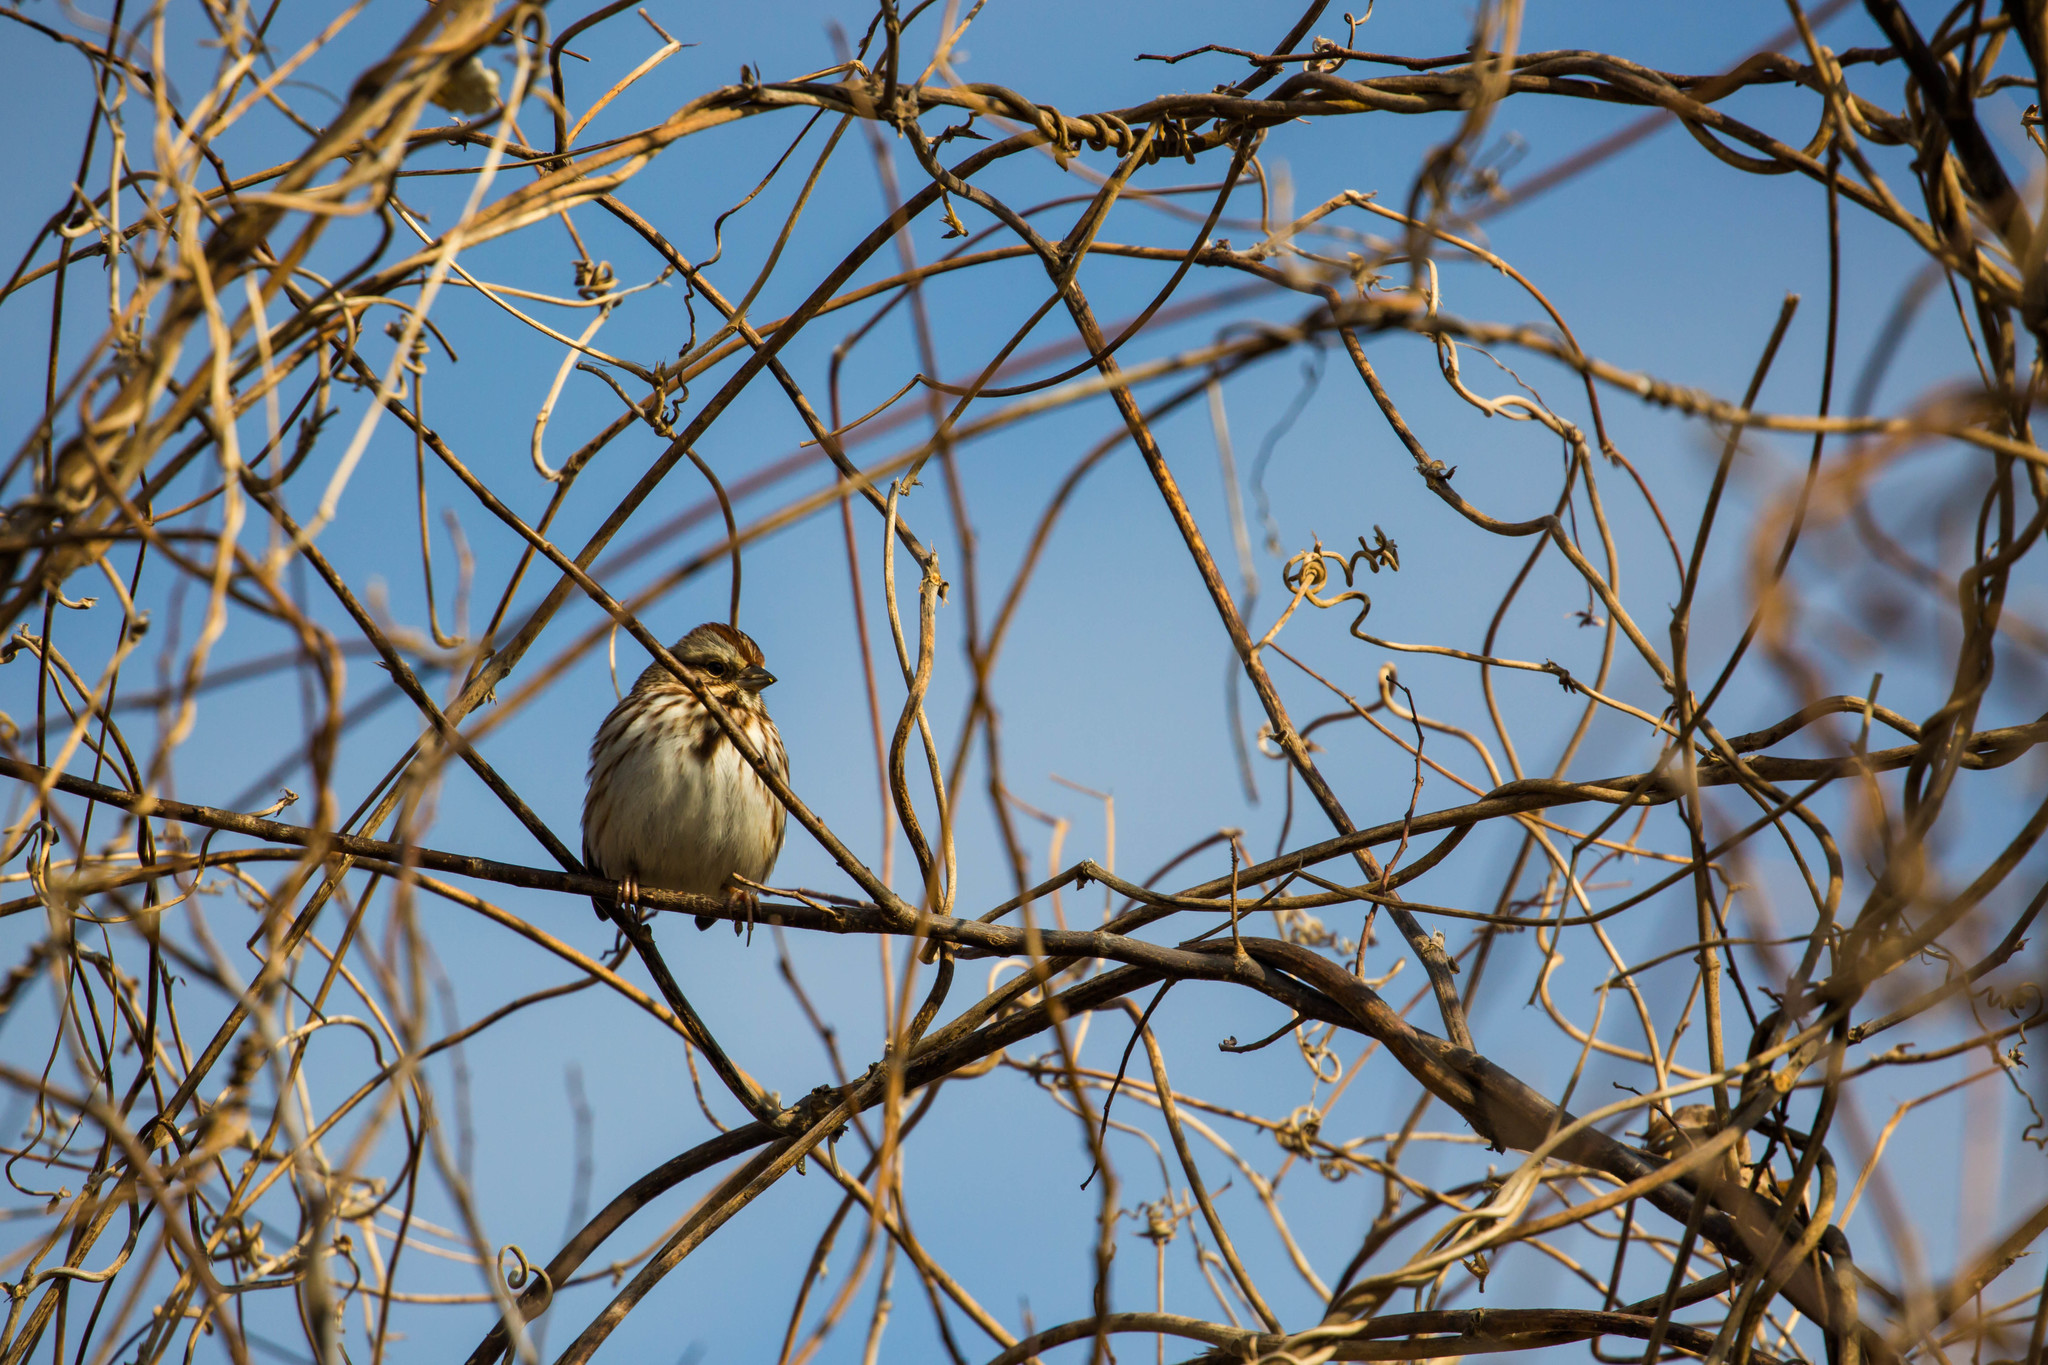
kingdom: Animalia
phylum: Chordata
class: Aves
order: Passeriformes
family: Passerellidae
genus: Melospiza
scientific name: Melospiza melodia
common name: Song sparrow
